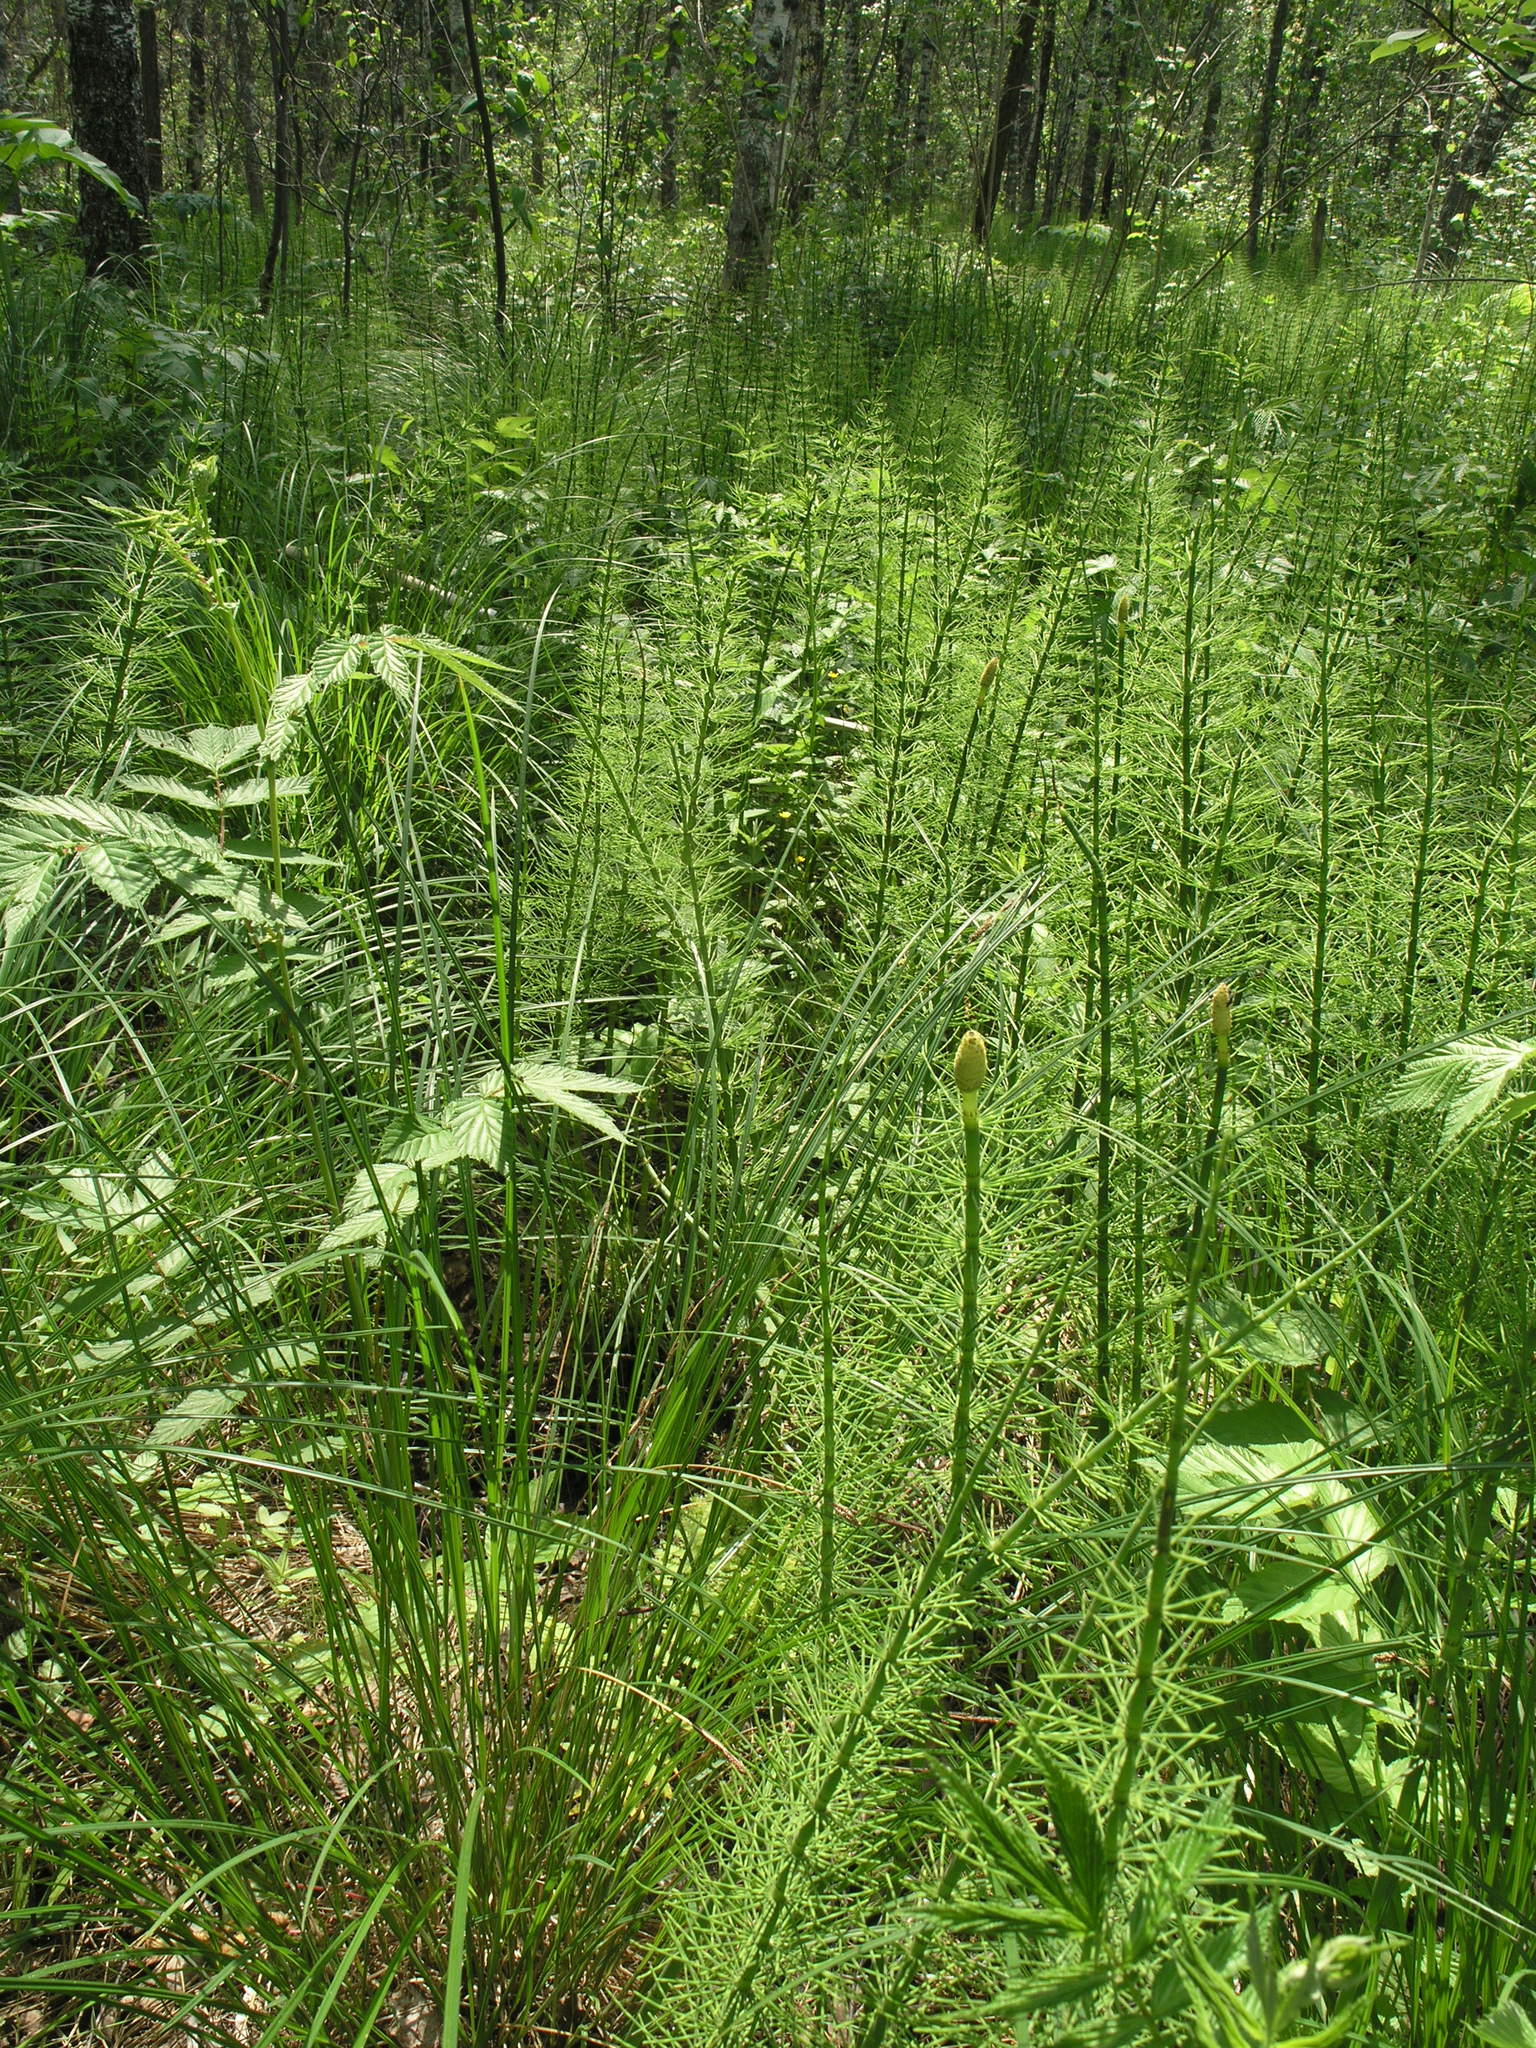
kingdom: Plantae
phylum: Tracheophyta
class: Polypodiopsida
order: Equisetales
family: Equisetaceae
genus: Equisetum
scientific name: Equisetum fluviatile
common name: Water horsetail
